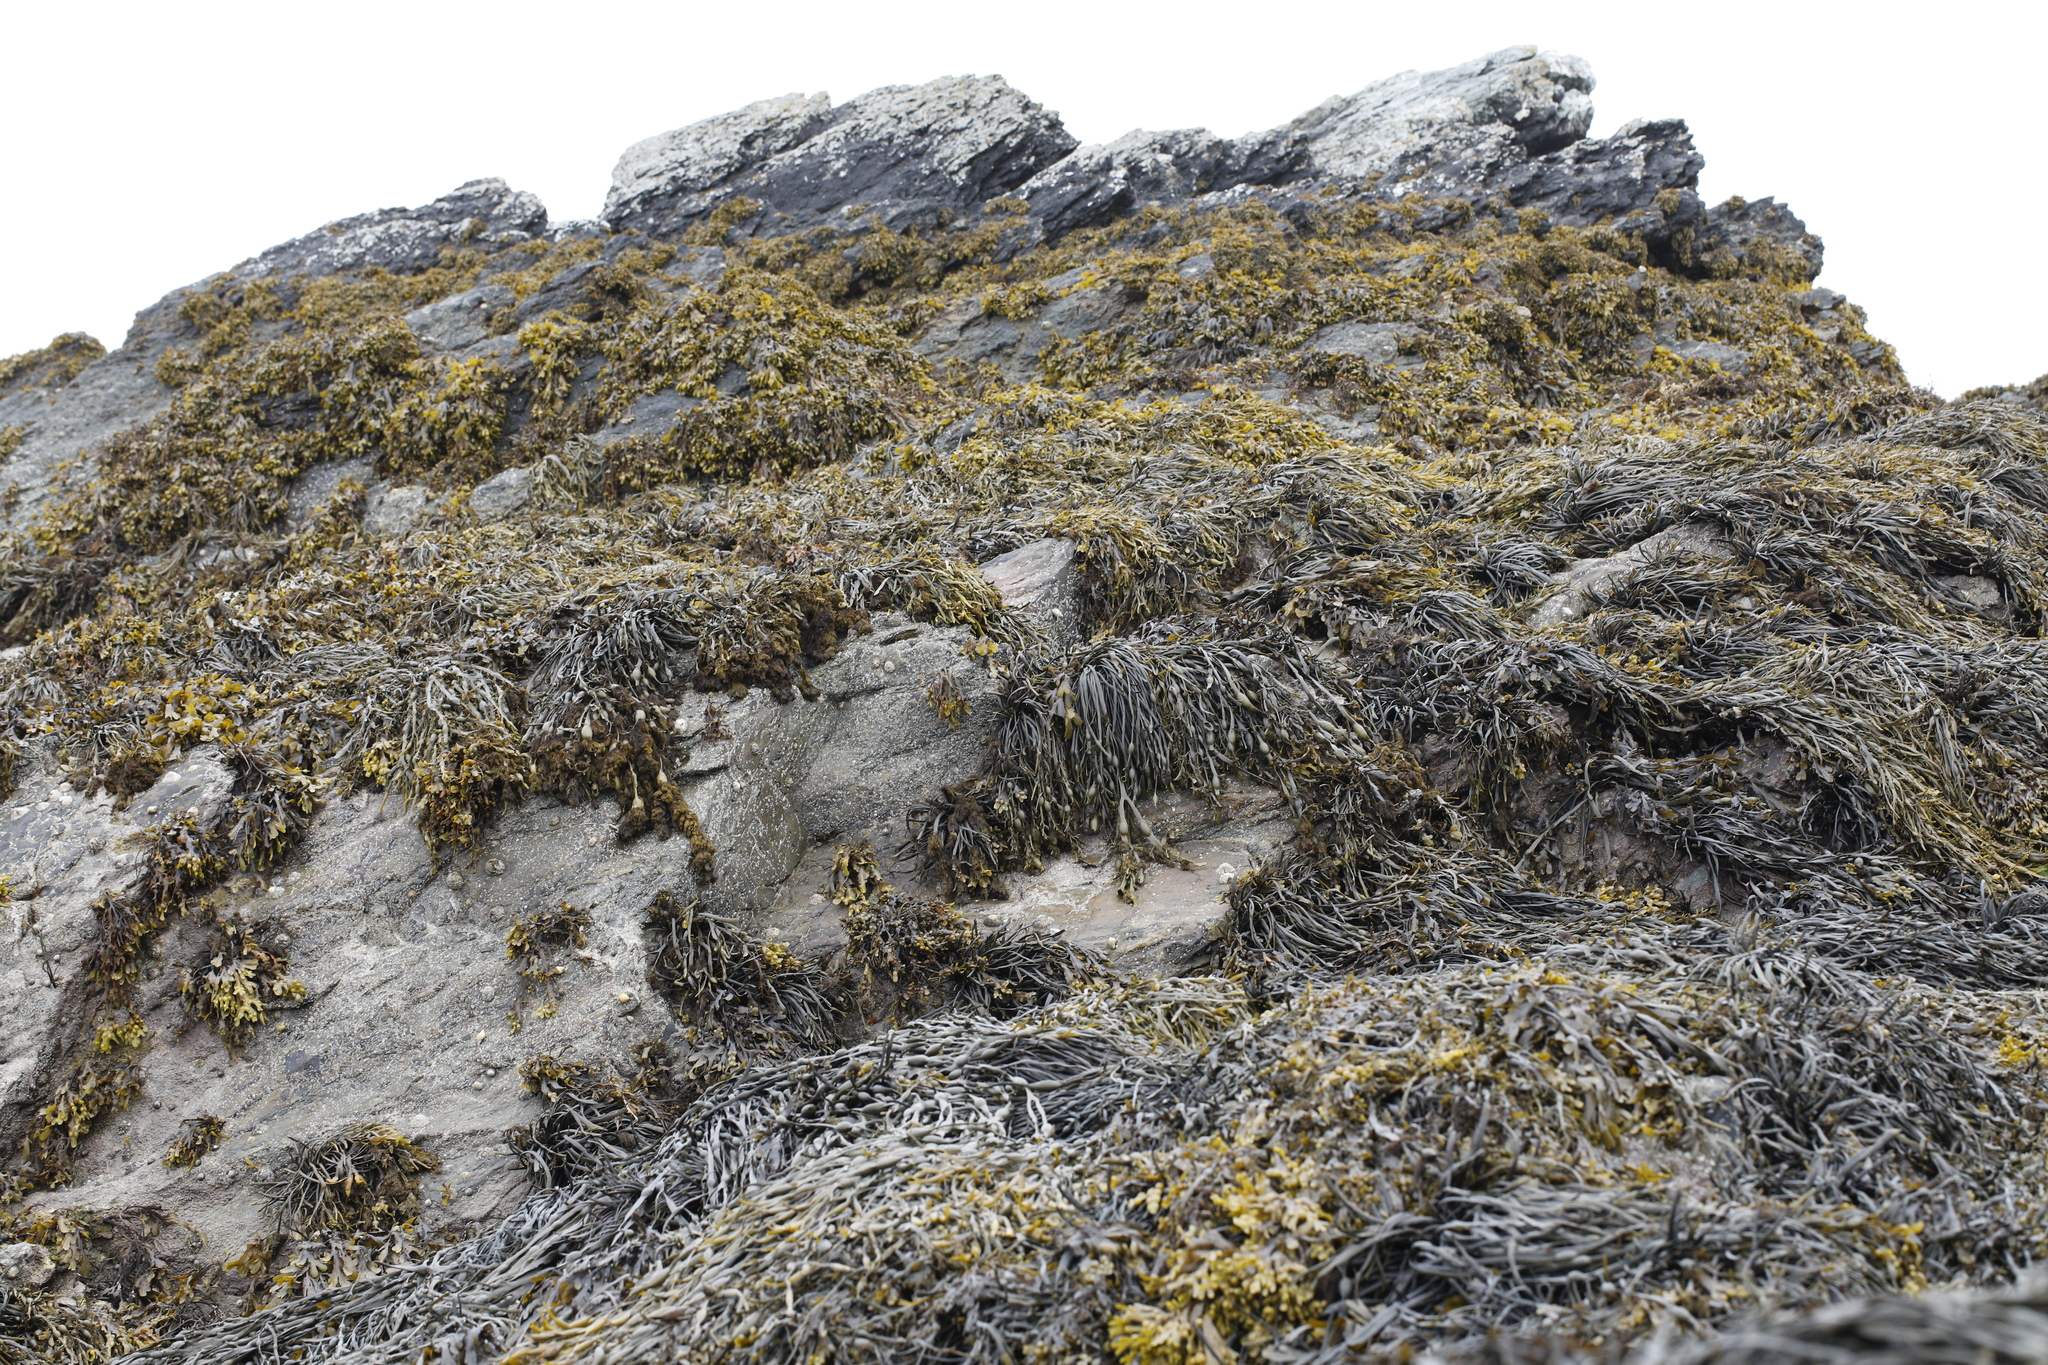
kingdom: Chromista
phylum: Ochrophyta
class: Phaeophyceae
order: Fucales
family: Fucaceae
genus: Ascophyllum
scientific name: Ascophyllum nodosum
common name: Knotted wrack
